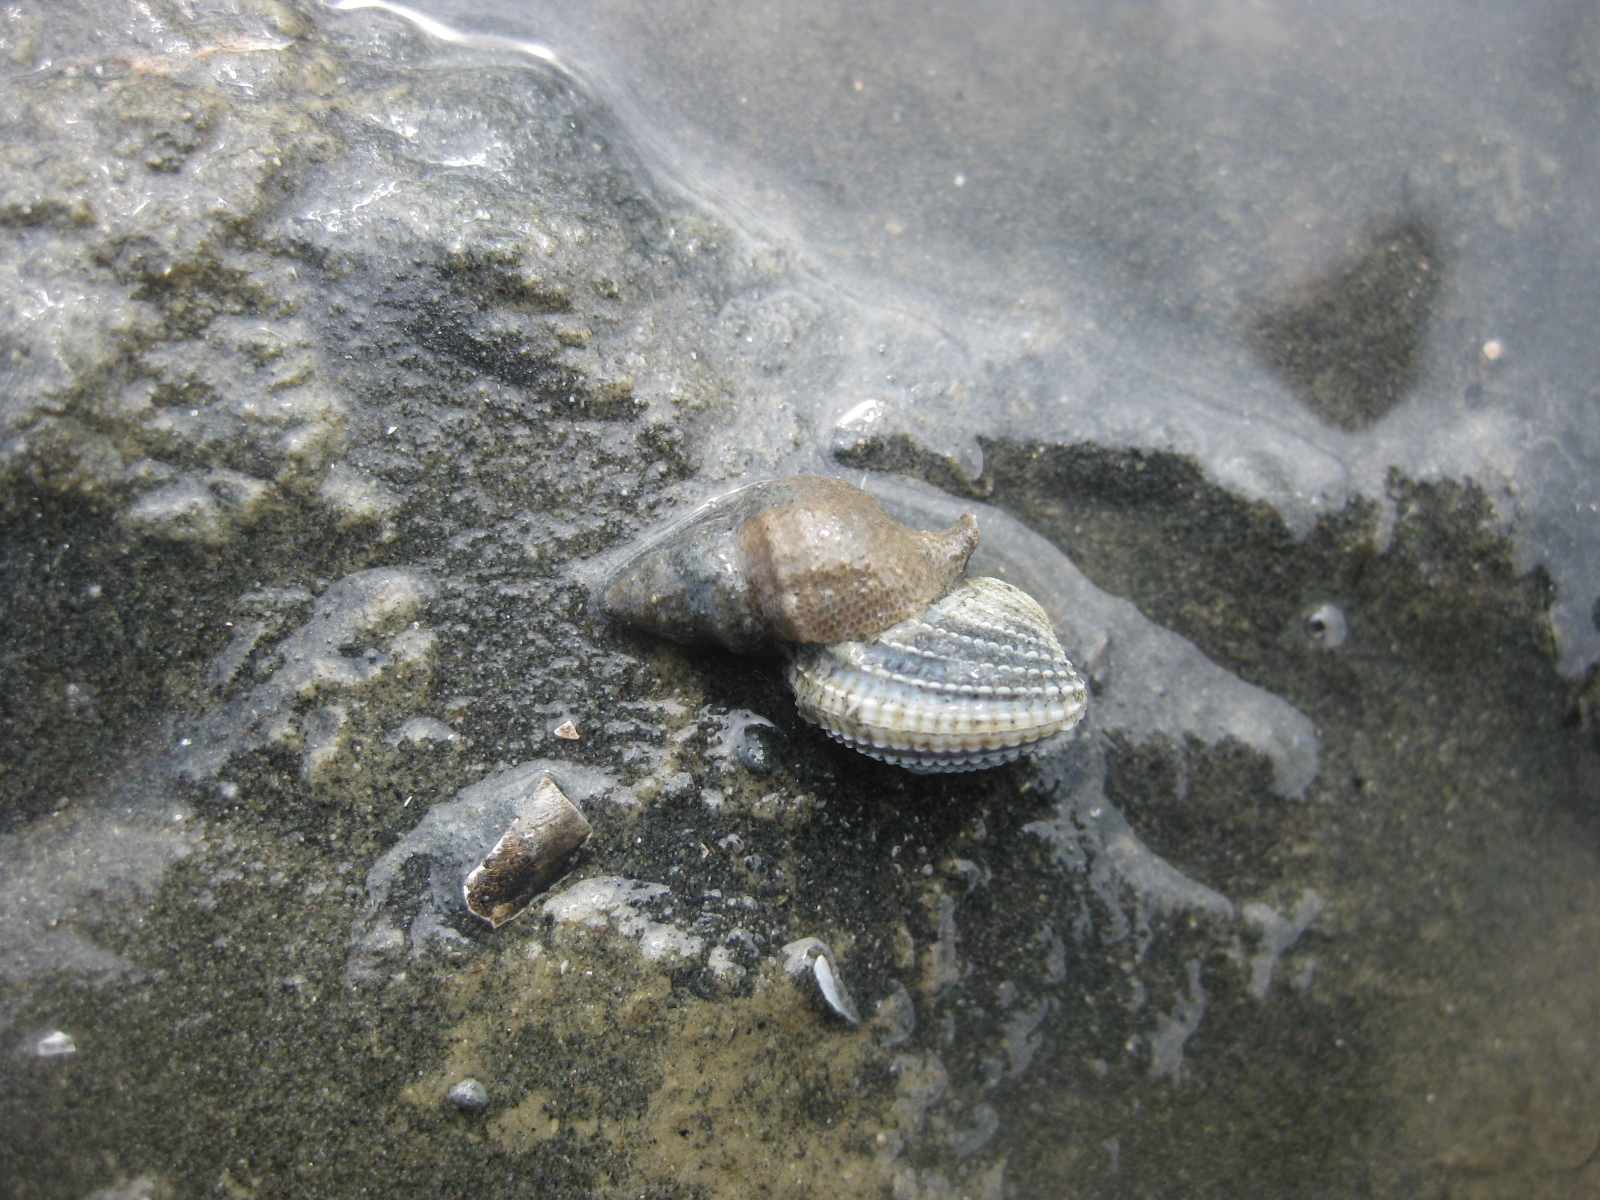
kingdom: Animalia
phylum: Mollusca
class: Gastropoda
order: Neogastropoda
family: Muricidae
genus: Xymene
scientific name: Xymene plebeius
